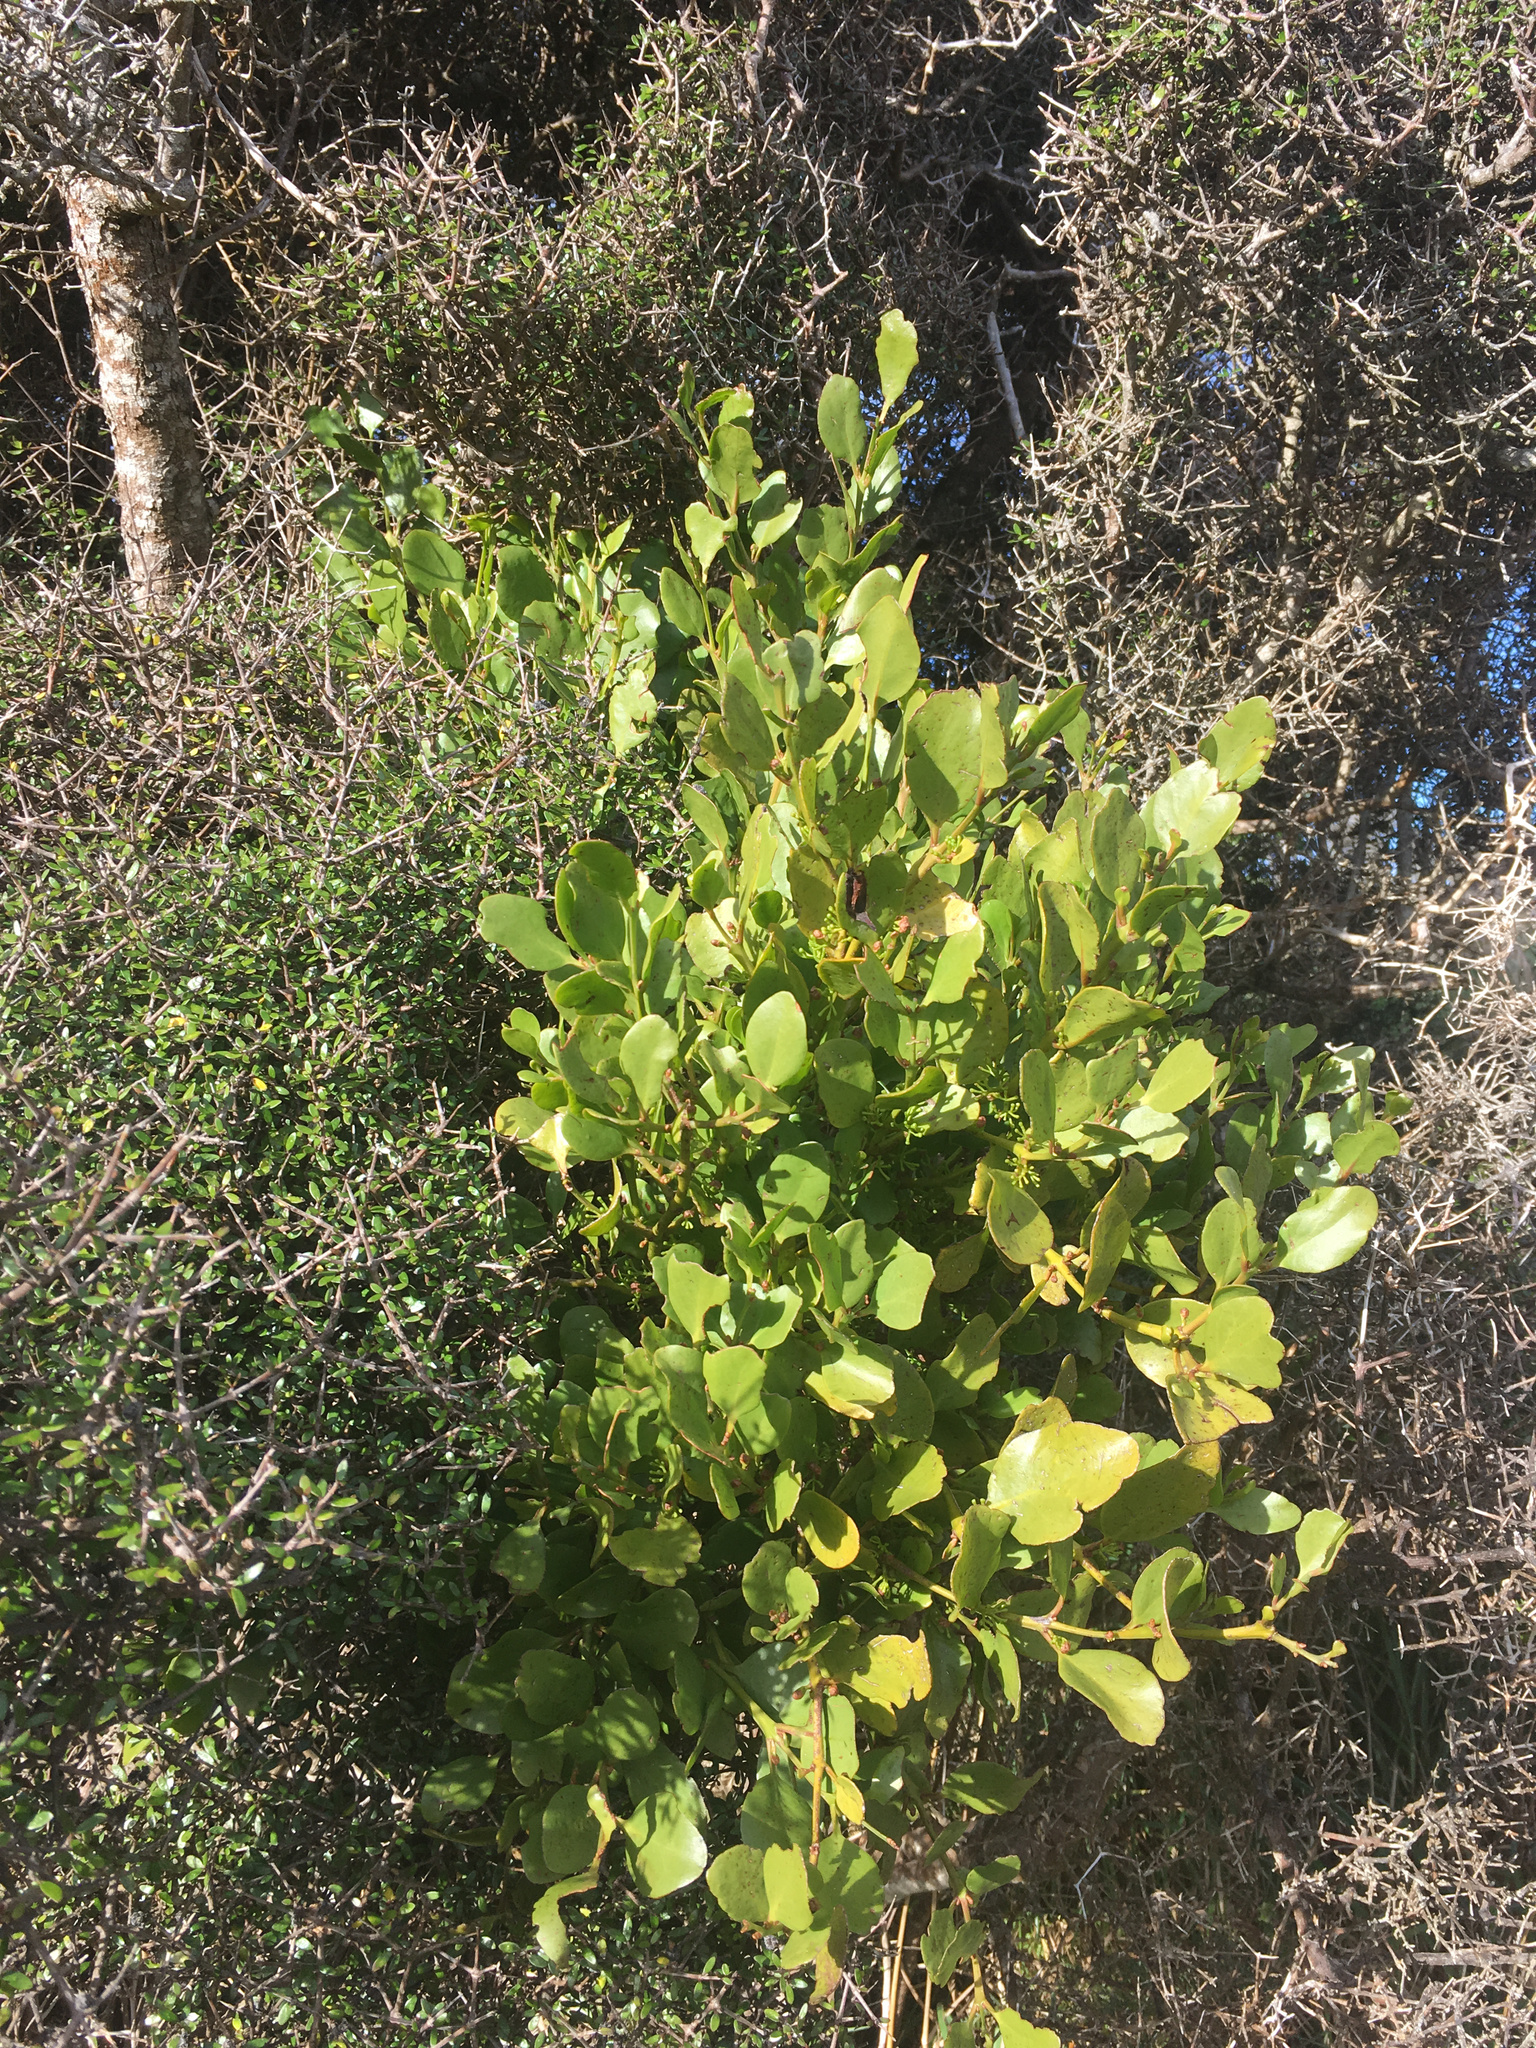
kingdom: Plantae
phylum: Tracheophyta
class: Magnoliopsida
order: Santalales
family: Loranthaceae
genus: Ileostylus
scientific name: Ileostylus micranthus
